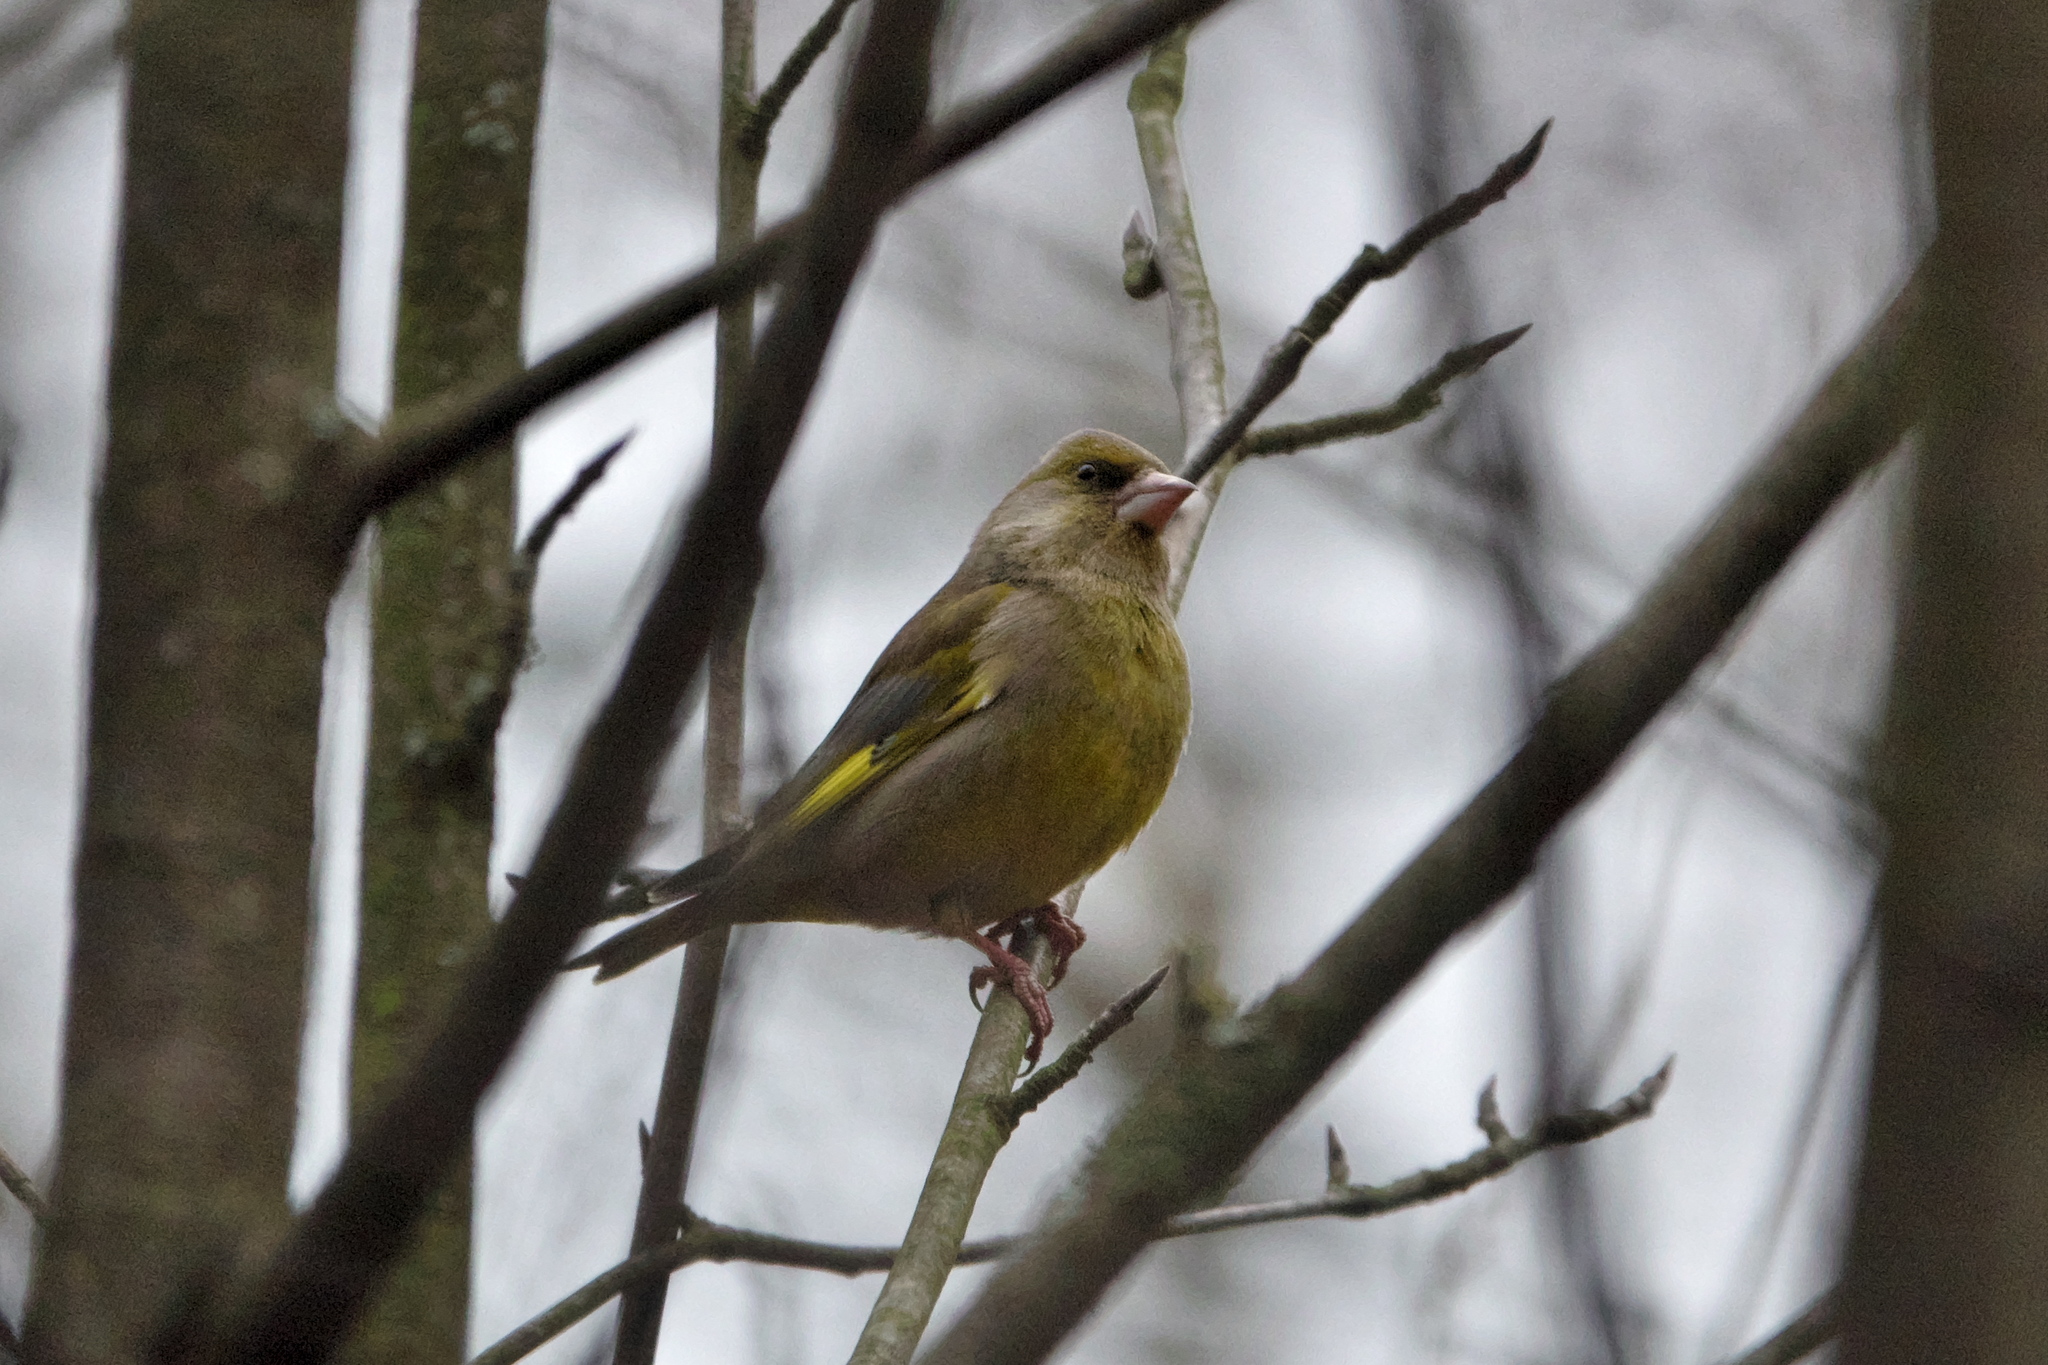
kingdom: Plantae
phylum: Tracheophyta
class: Liliopsida
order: Poales
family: Poaceae
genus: Chloris
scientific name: Chloris chloris
